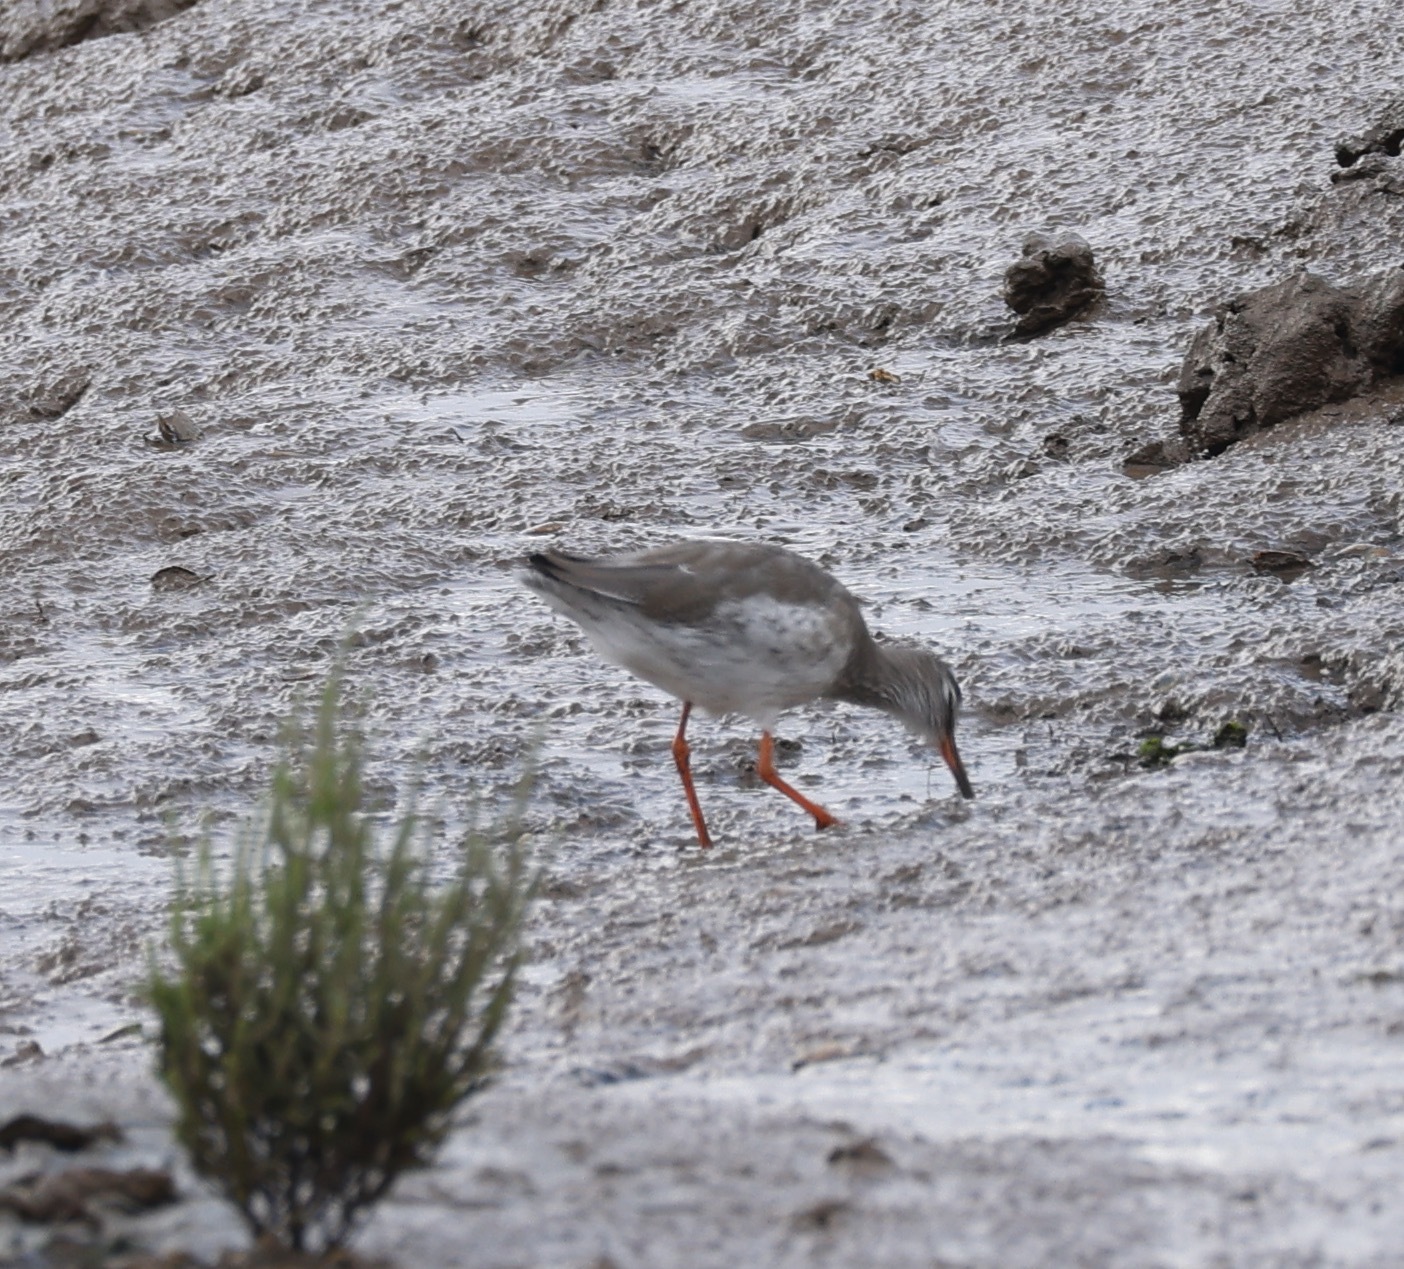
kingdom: Animalia
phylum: Chordata
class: Aves
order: Charadriiformes
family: Scolopacidae
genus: Tringa
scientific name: Tringa totanus
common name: Common redshank
